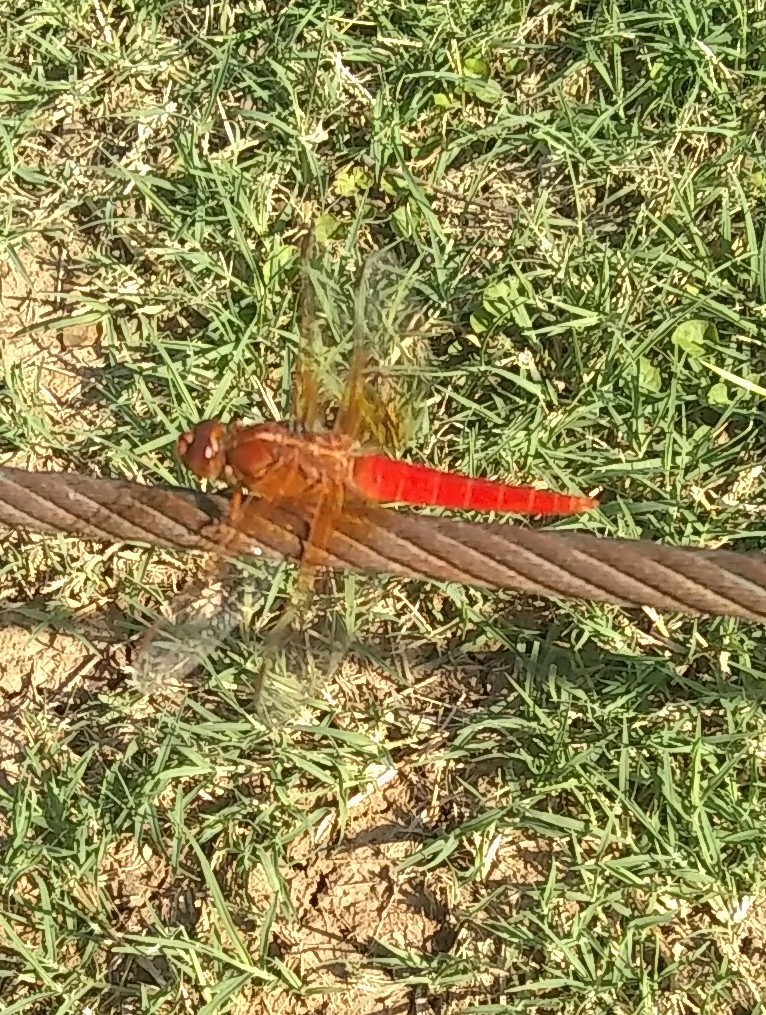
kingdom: Animalia
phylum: Arthropoda
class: Insecta
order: Odonata
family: Libellulidae
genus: Libellula
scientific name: Libellula croceipennis
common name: Neon skimmer
